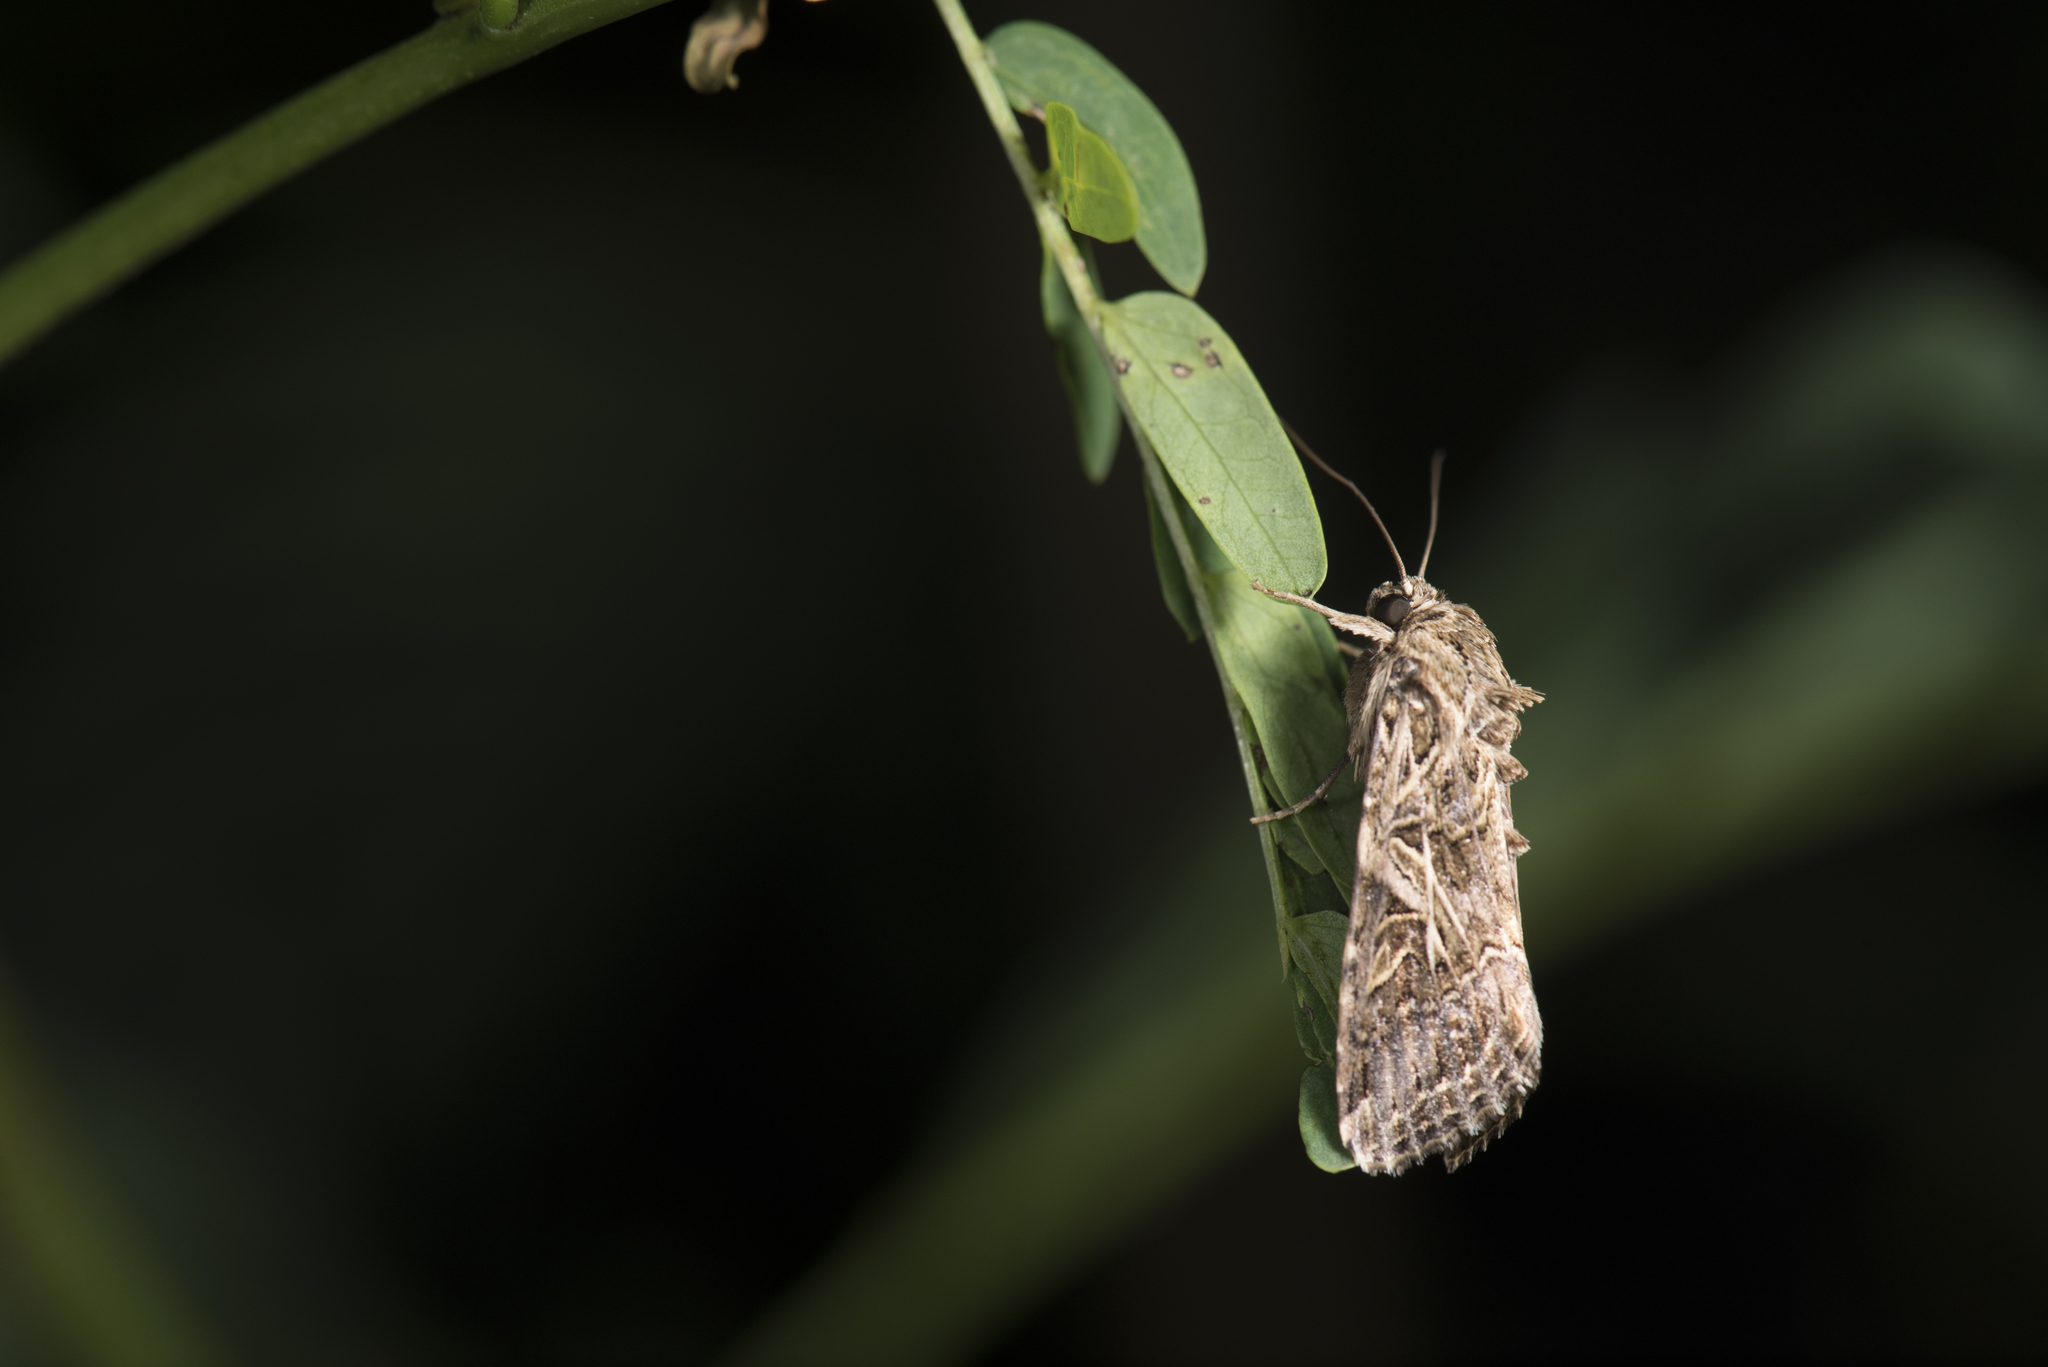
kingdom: Animalia
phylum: Arthropoda
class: Insecta
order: Lepidoptera
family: Noctuidae
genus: Spodoptera
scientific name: Spodoptera litura
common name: Asian cotton leafworm
